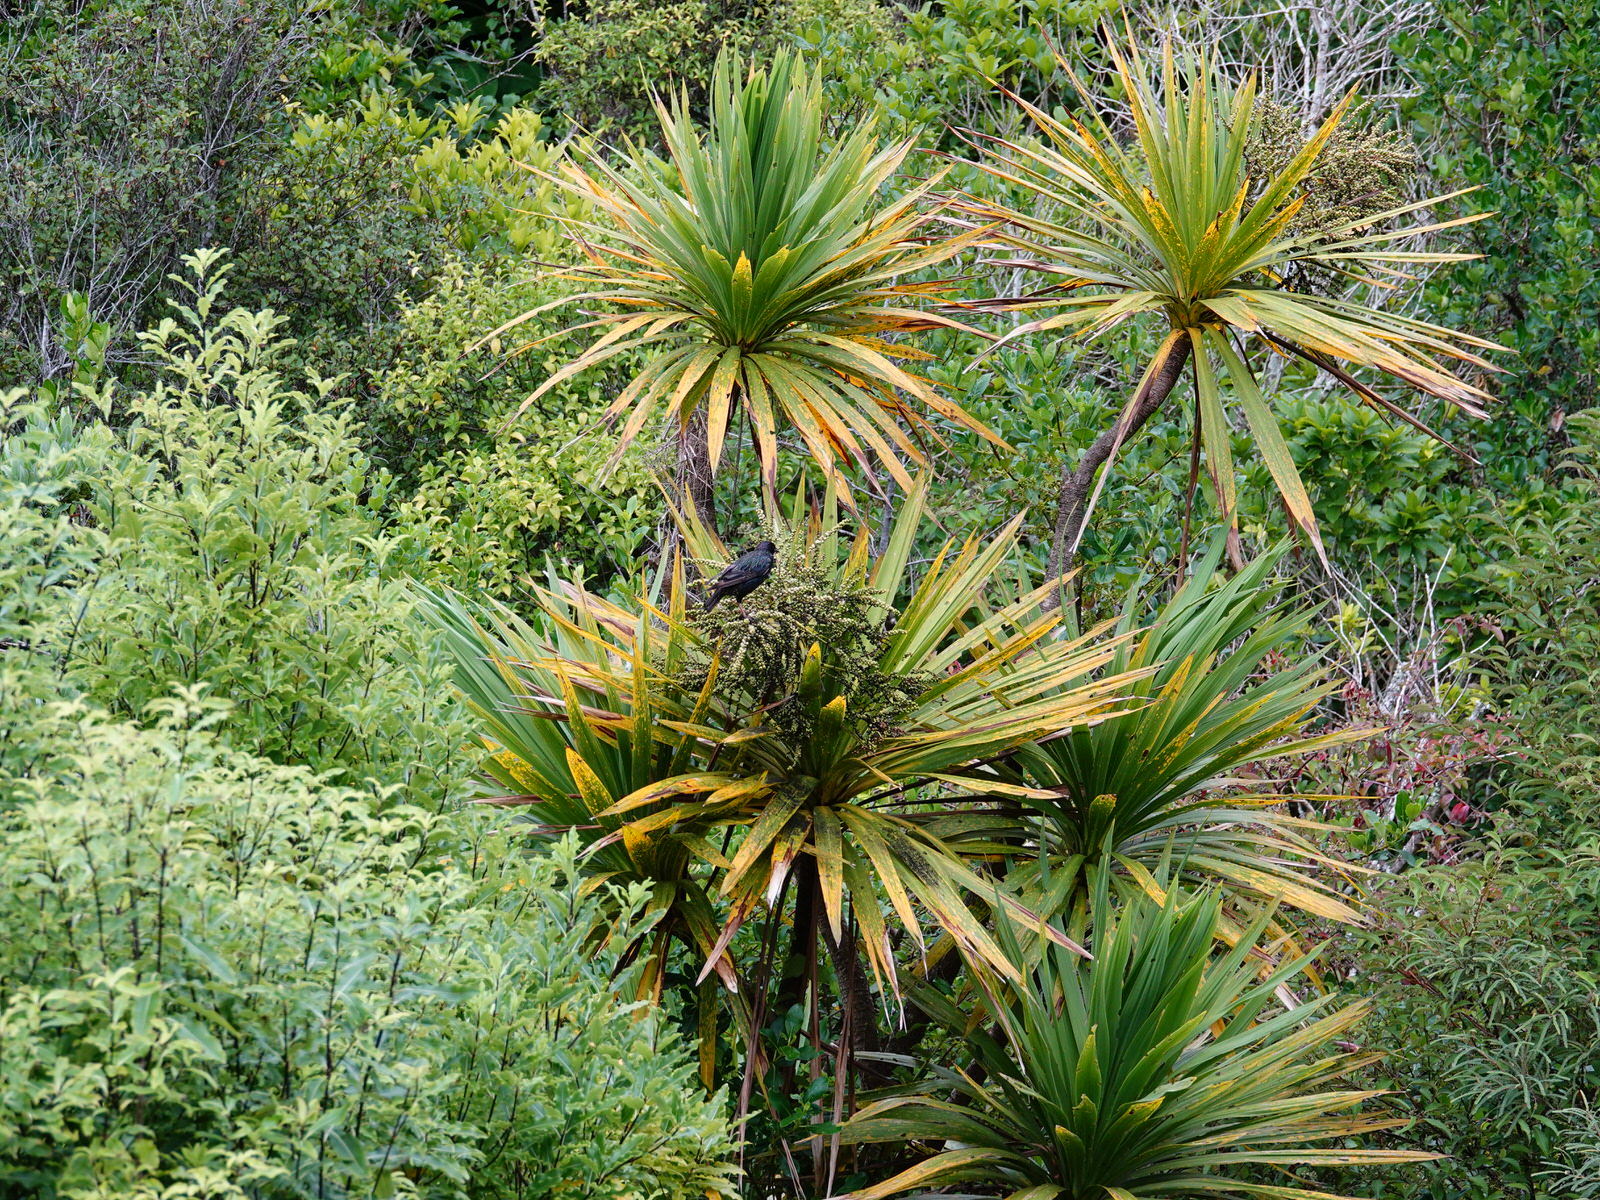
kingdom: Animalia
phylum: Chordata
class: Aves
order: Passeriformes
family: Sturnidae
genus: Sturnus
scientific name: Sturnus vulgaris
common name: Common starling
